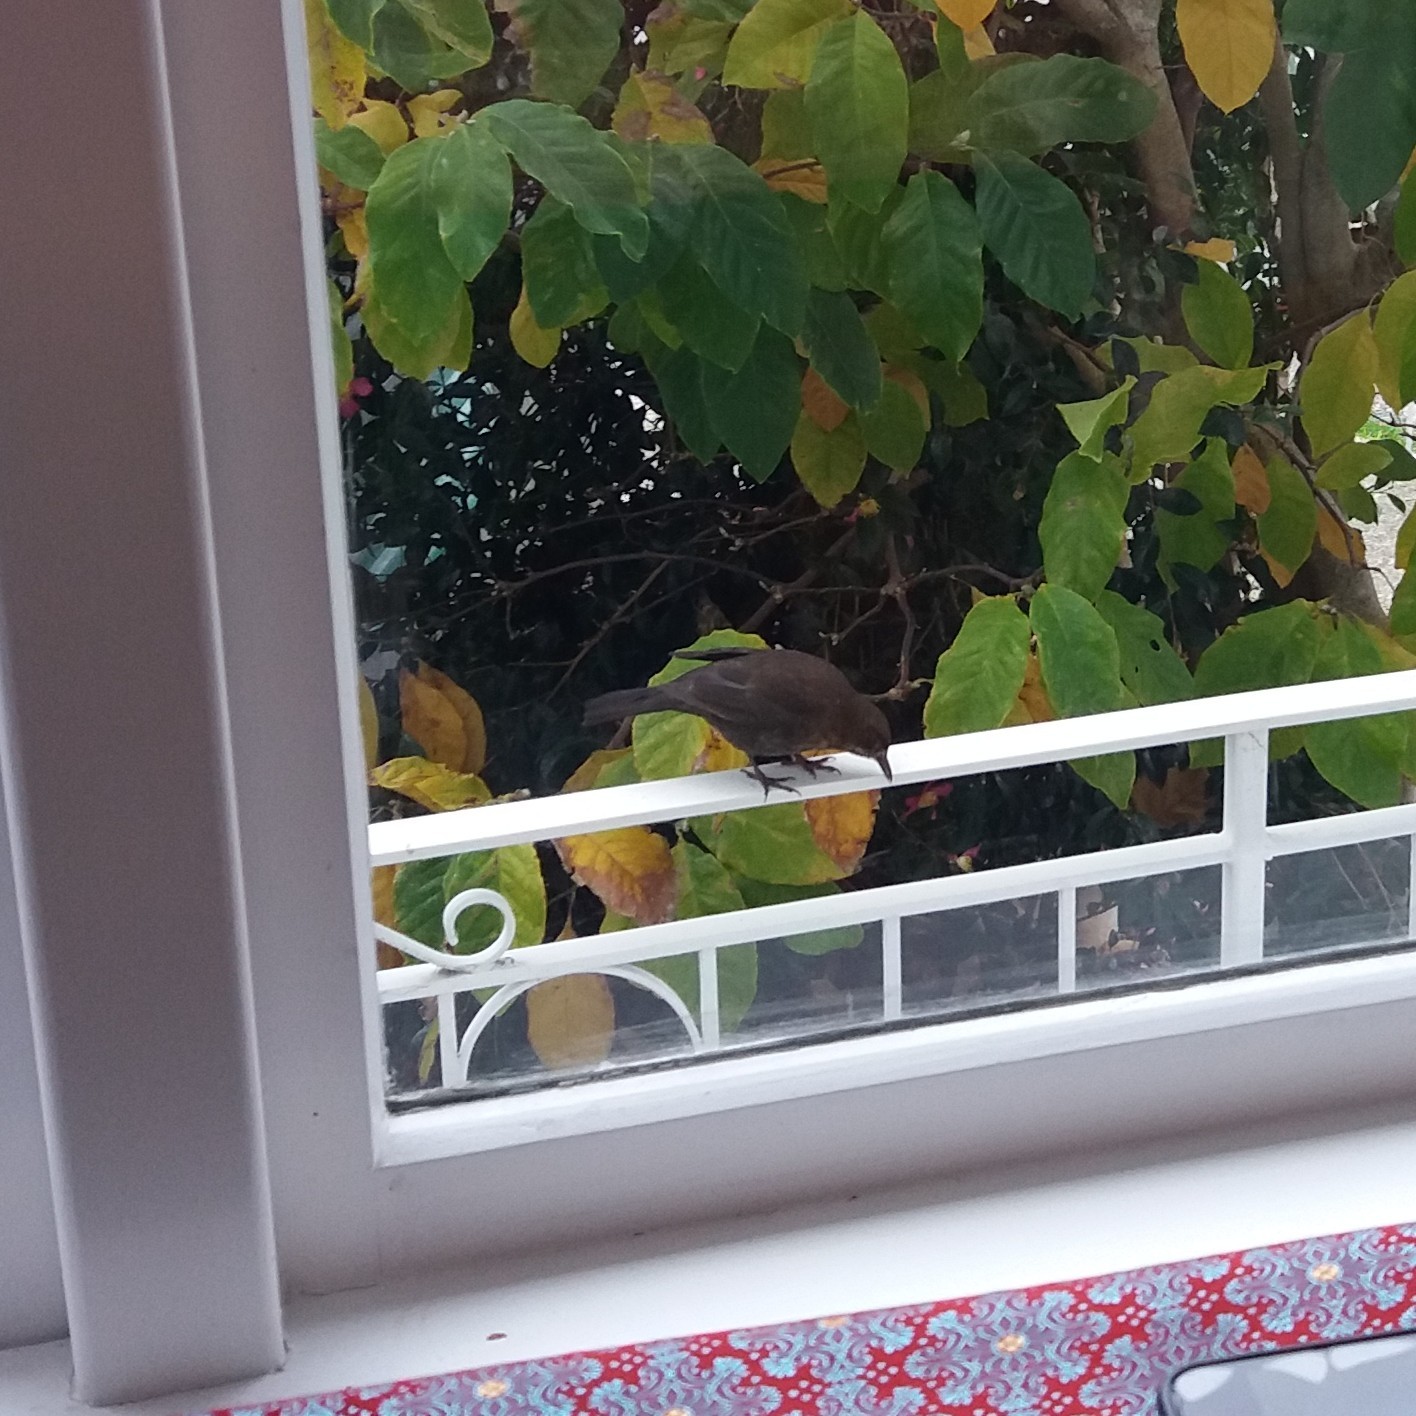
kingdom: Animalia
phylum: Chordata
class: Aves
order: Passeriformes
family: Turdidae
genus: Turdus
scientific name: Turdus merula
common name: Common blackbird
